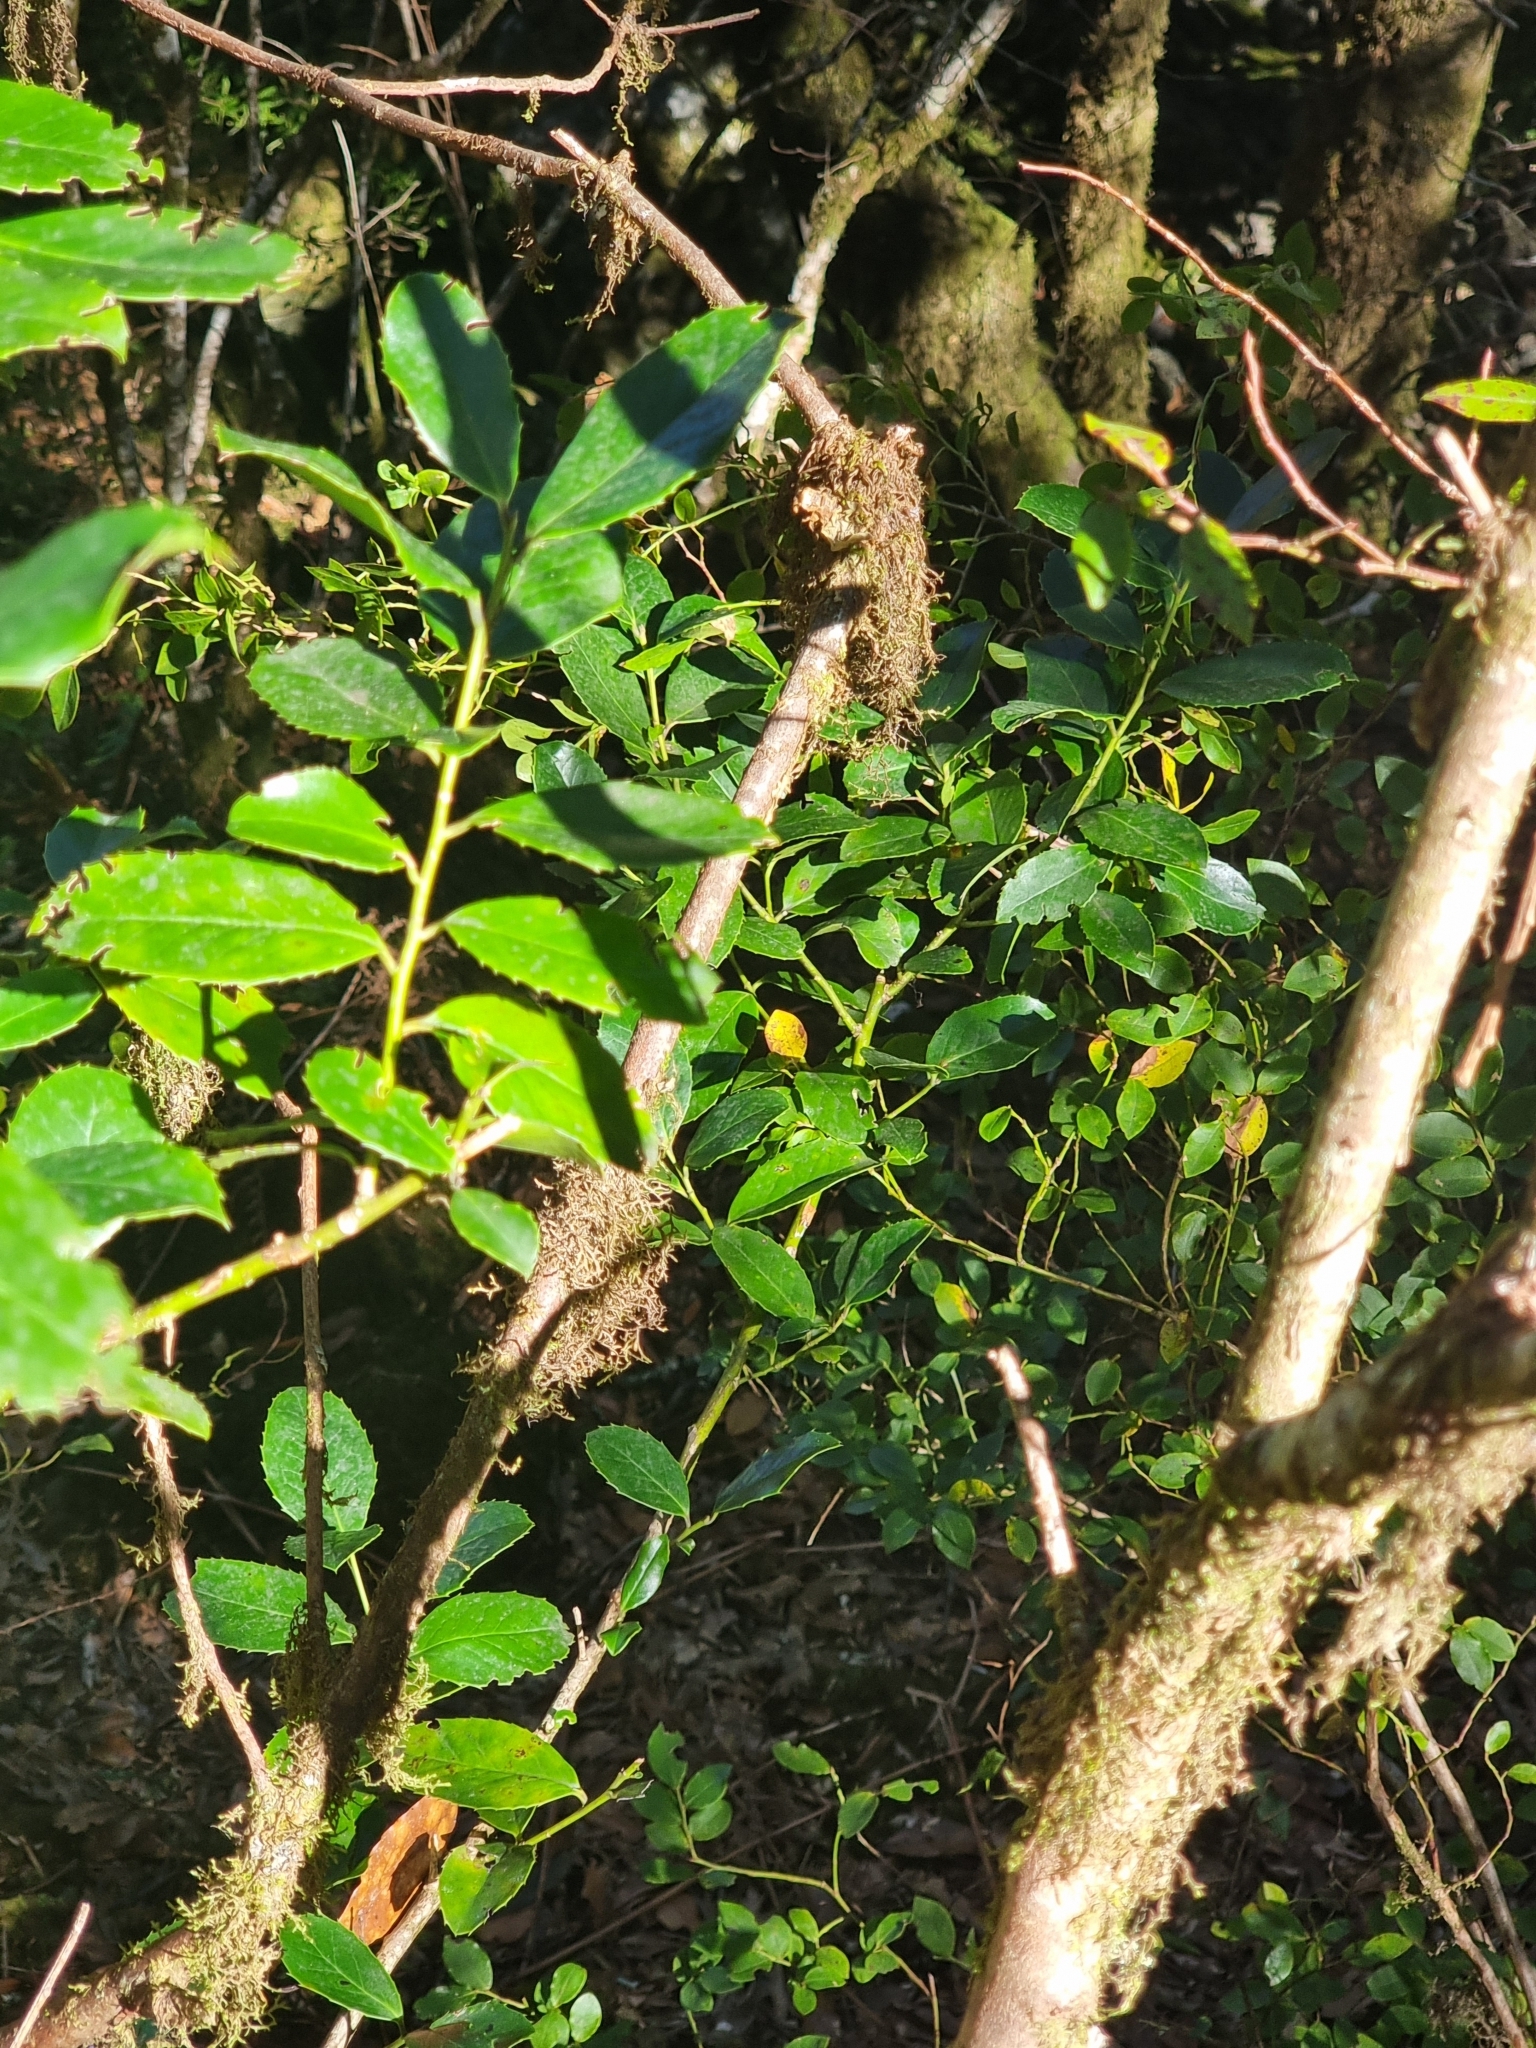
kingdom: Plantae
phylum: Tracheophyta
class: Magnoliopsida
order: Aquifoliales
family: Aquifoliaceae
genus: Ilex
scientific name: Ilex perado
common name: Madeira holly
